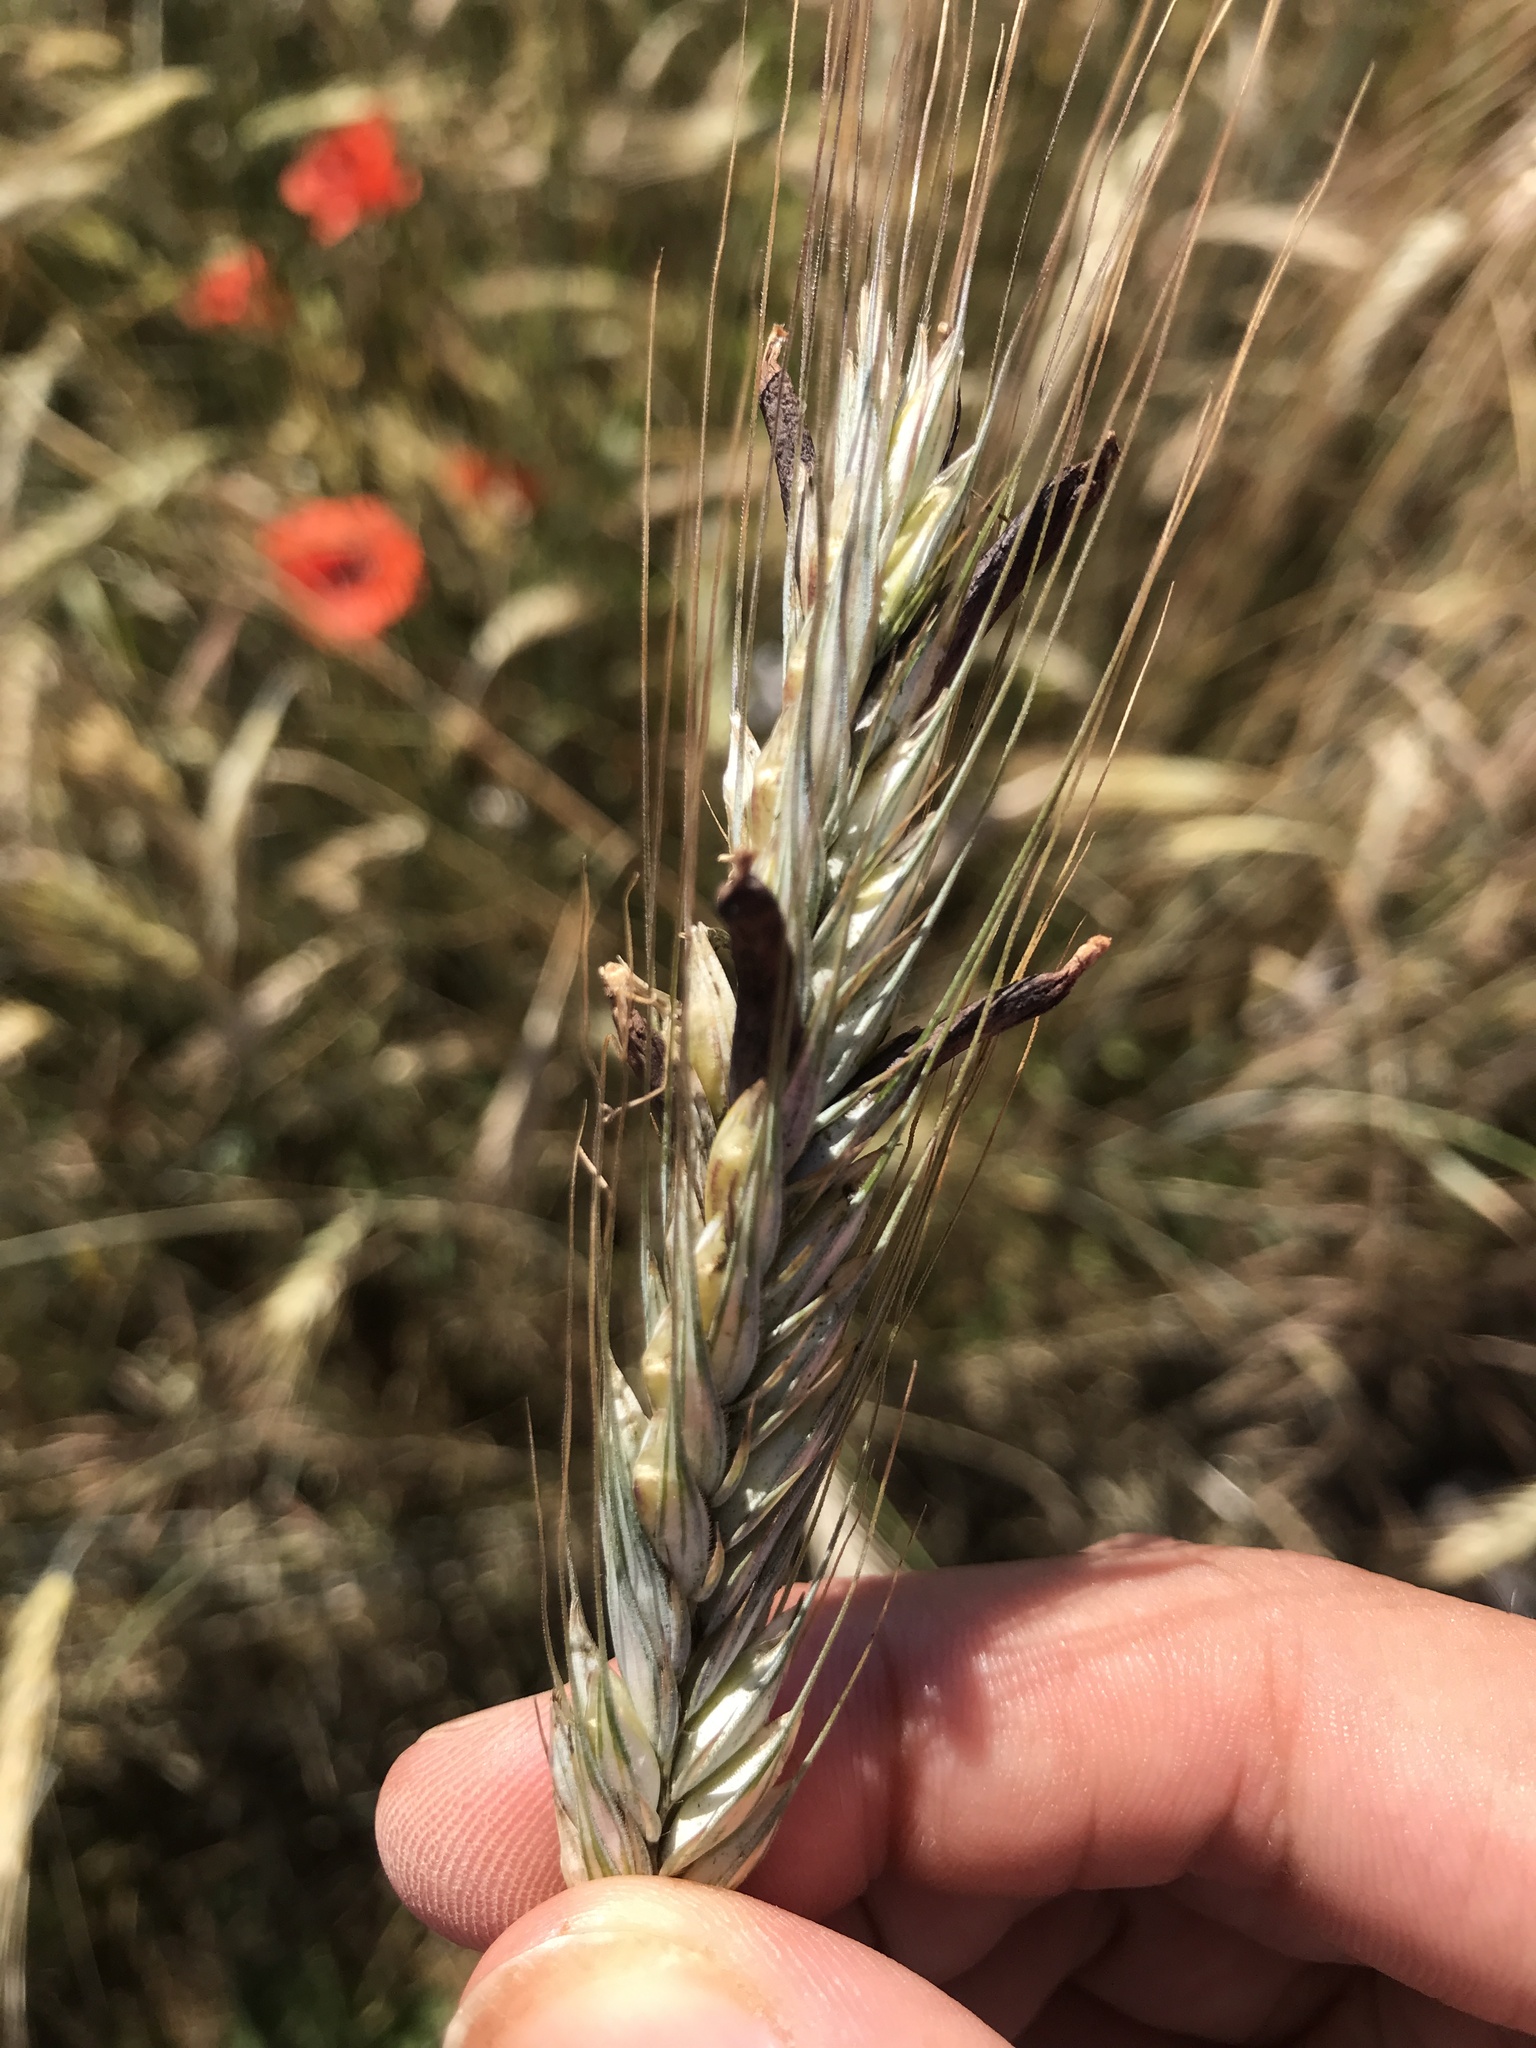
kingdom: Fungi
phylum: Ascomycota
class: Sordariomycetes
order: Hypocreales
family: Clavicipitaceae
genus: Claviceps
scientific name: Claviceps purpurea
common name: Rye ergot
